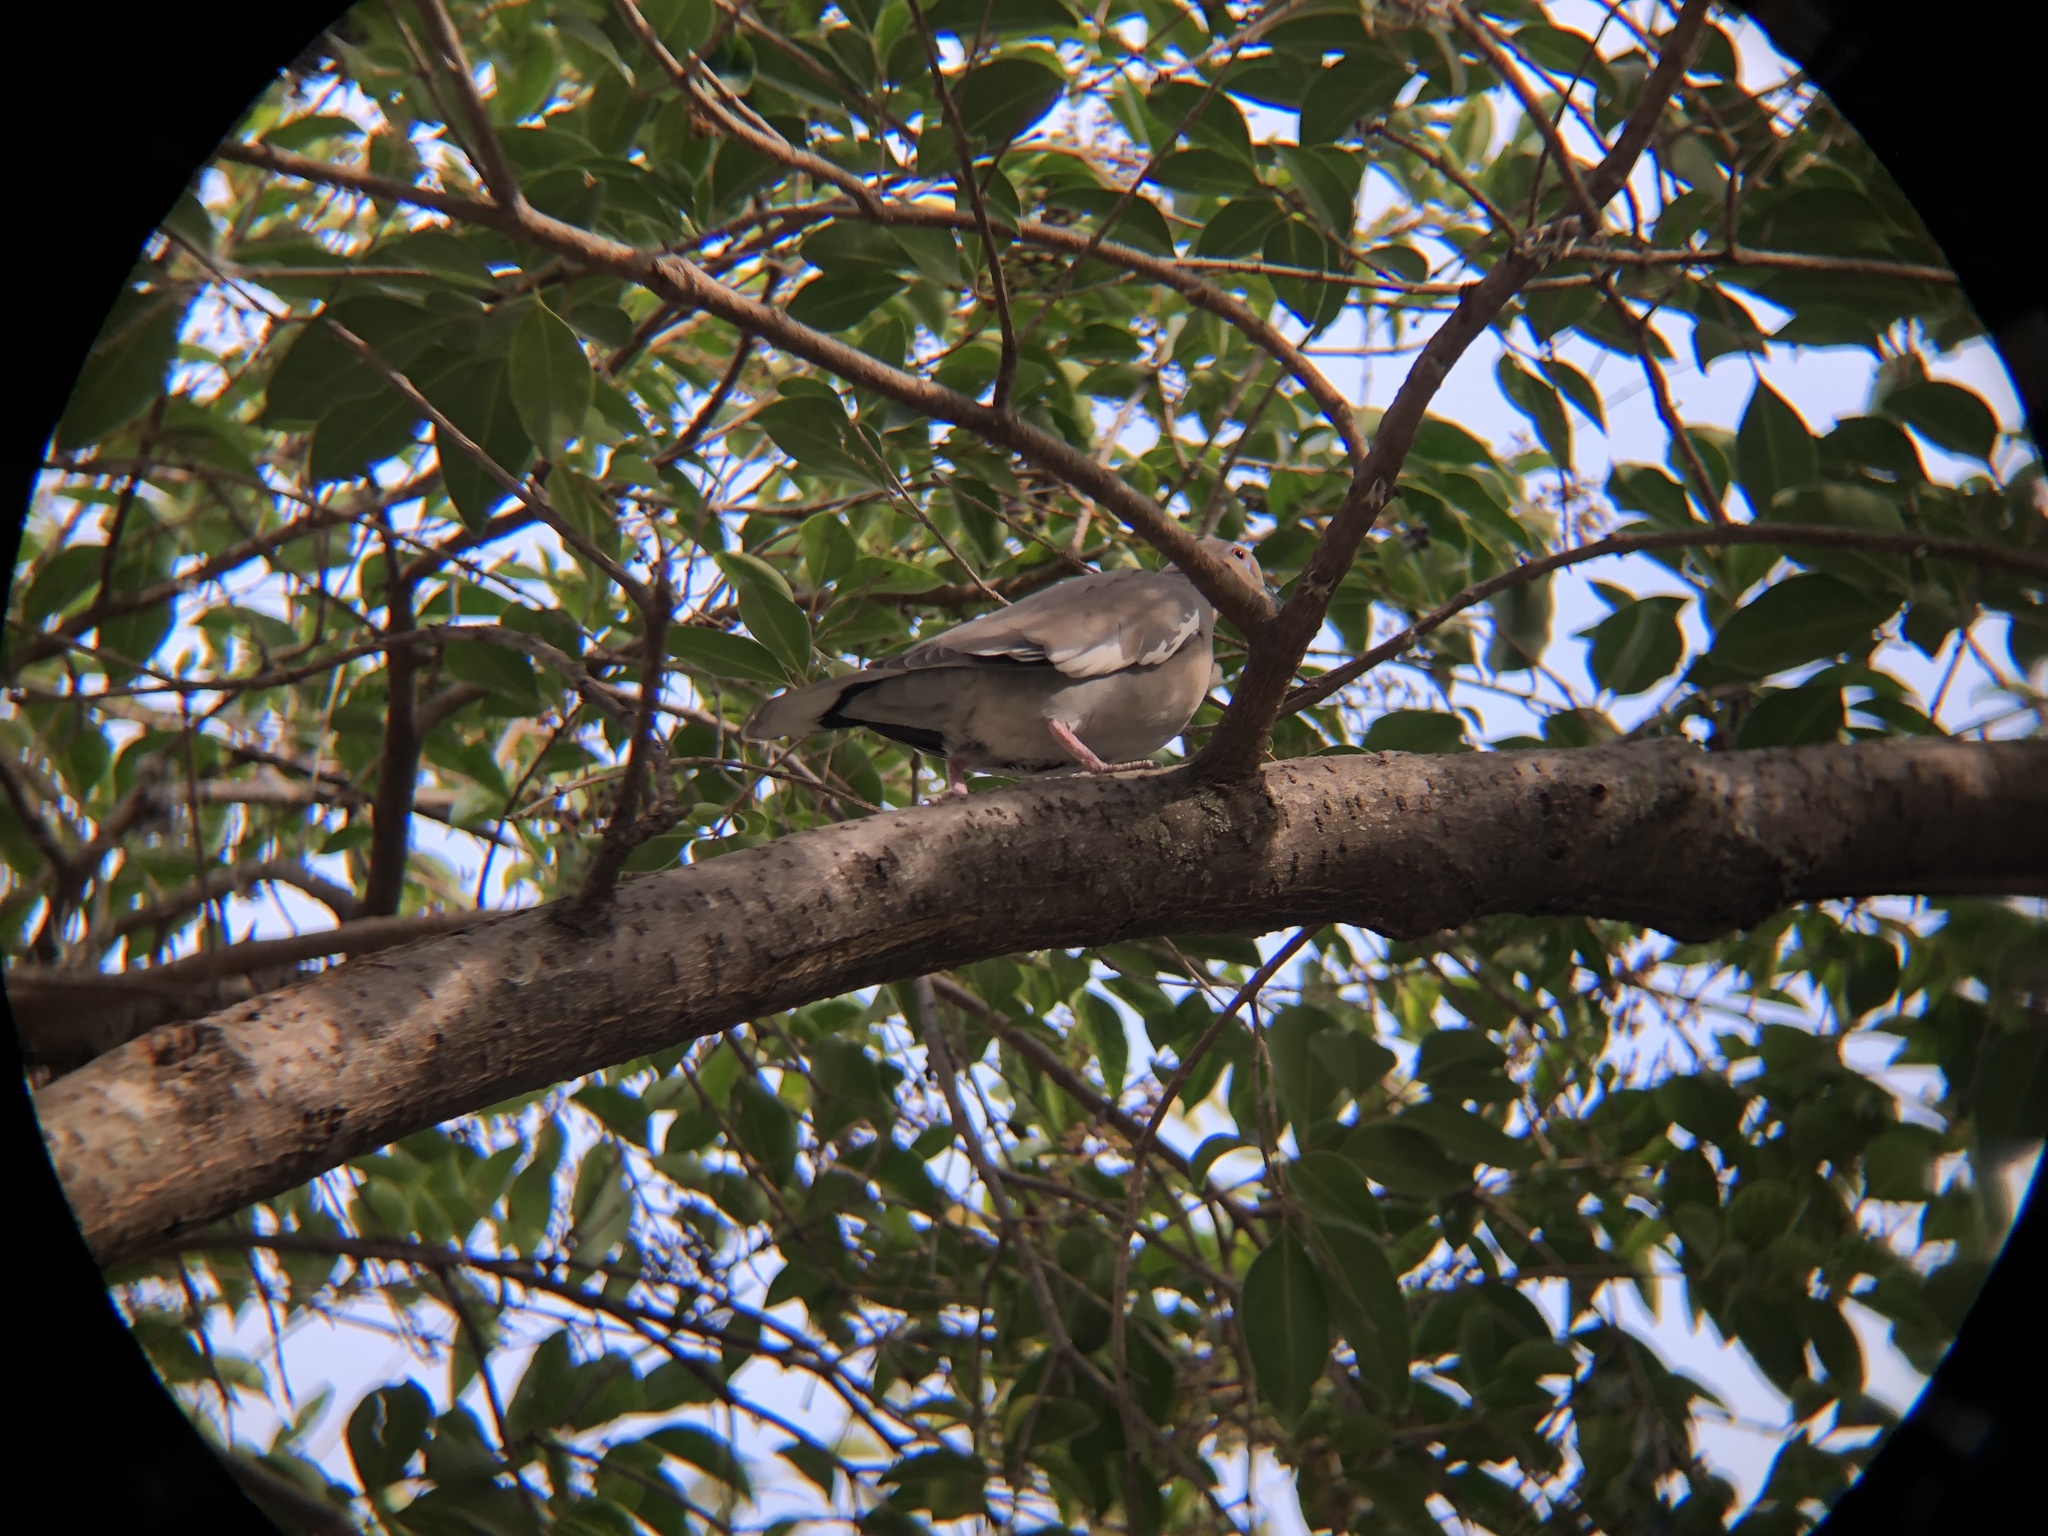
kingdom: Animalia
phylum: Chordata
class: Aves
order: Columbiformes
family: Columbidae
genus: Zenaida
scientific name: Zenaida asiatica
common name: White-winged dove
